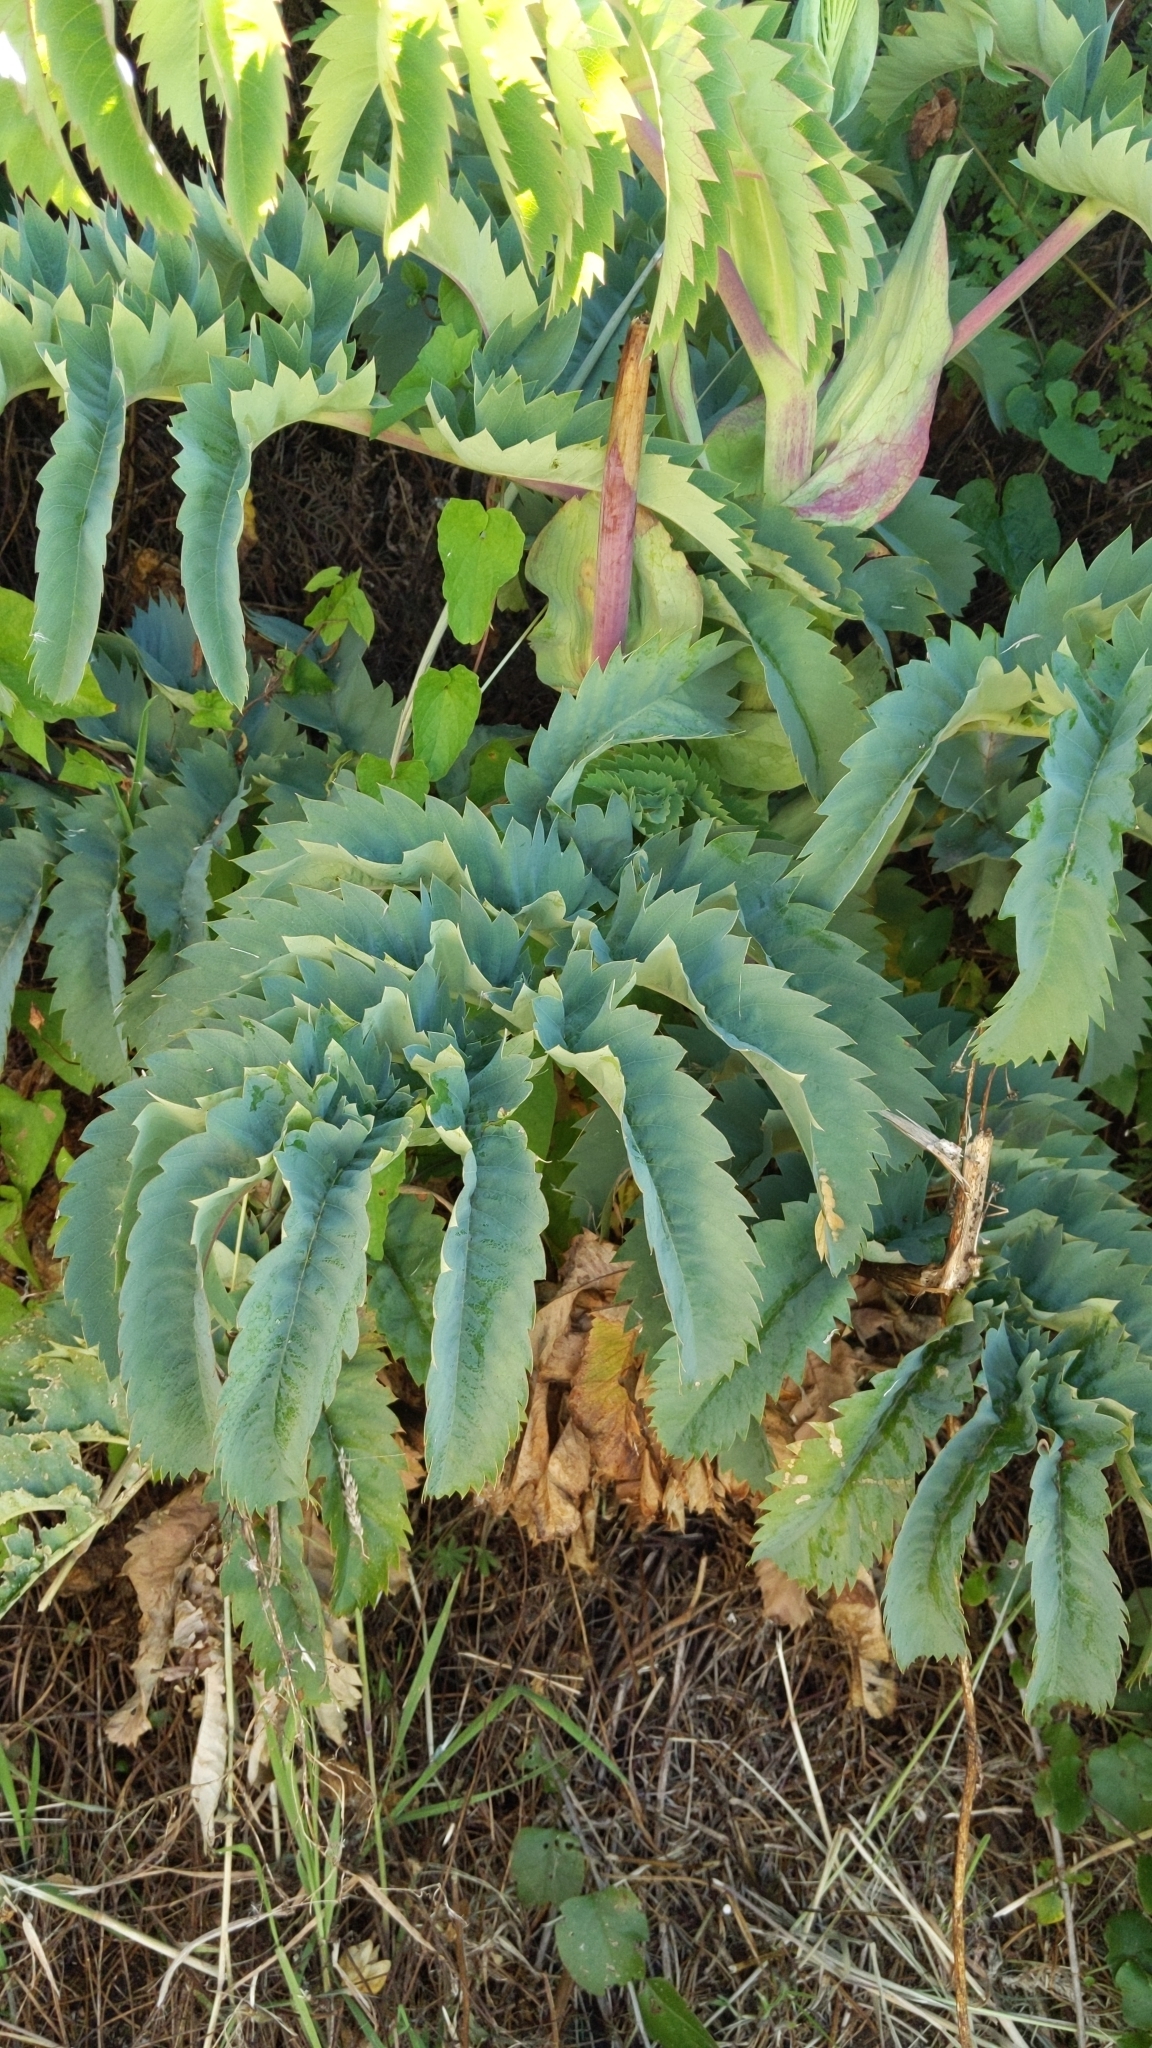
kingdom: Plantae
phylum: Tracheophyta
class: Magnoliopsida
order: Geraniales
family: Melianthaceae
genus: Melianthus
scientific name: Melianthus major
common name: Honey-flower
